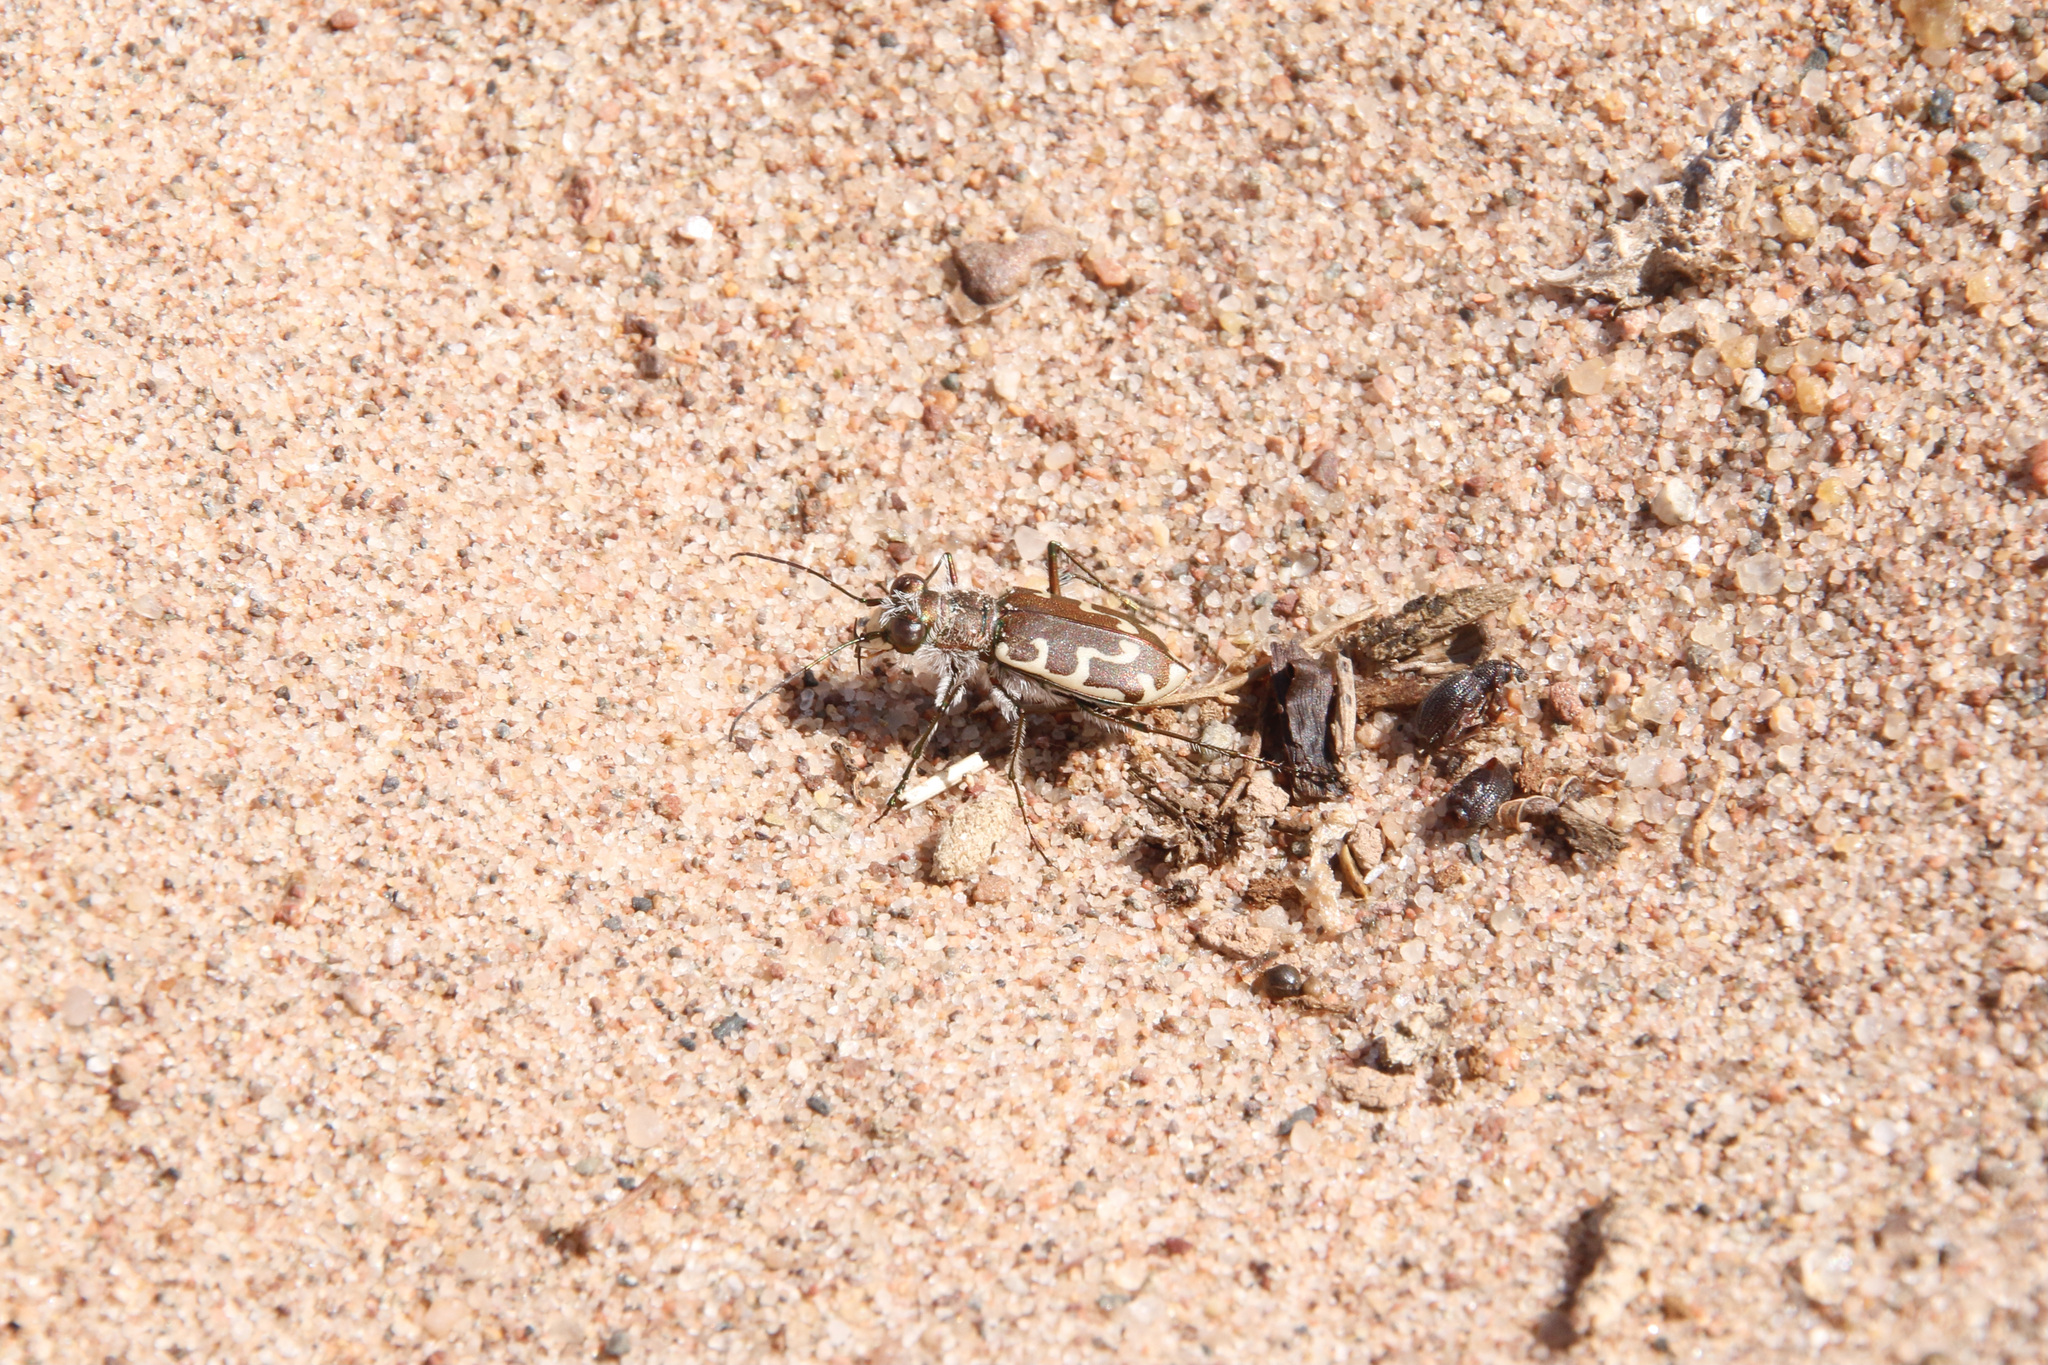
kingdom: Animalia
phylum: Arthropoda
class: Insecta
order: Coleoptera
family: Carabidae
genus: Cicindela
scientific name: Cicindela hirticollis
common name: Hairy-necked tiger beetle
